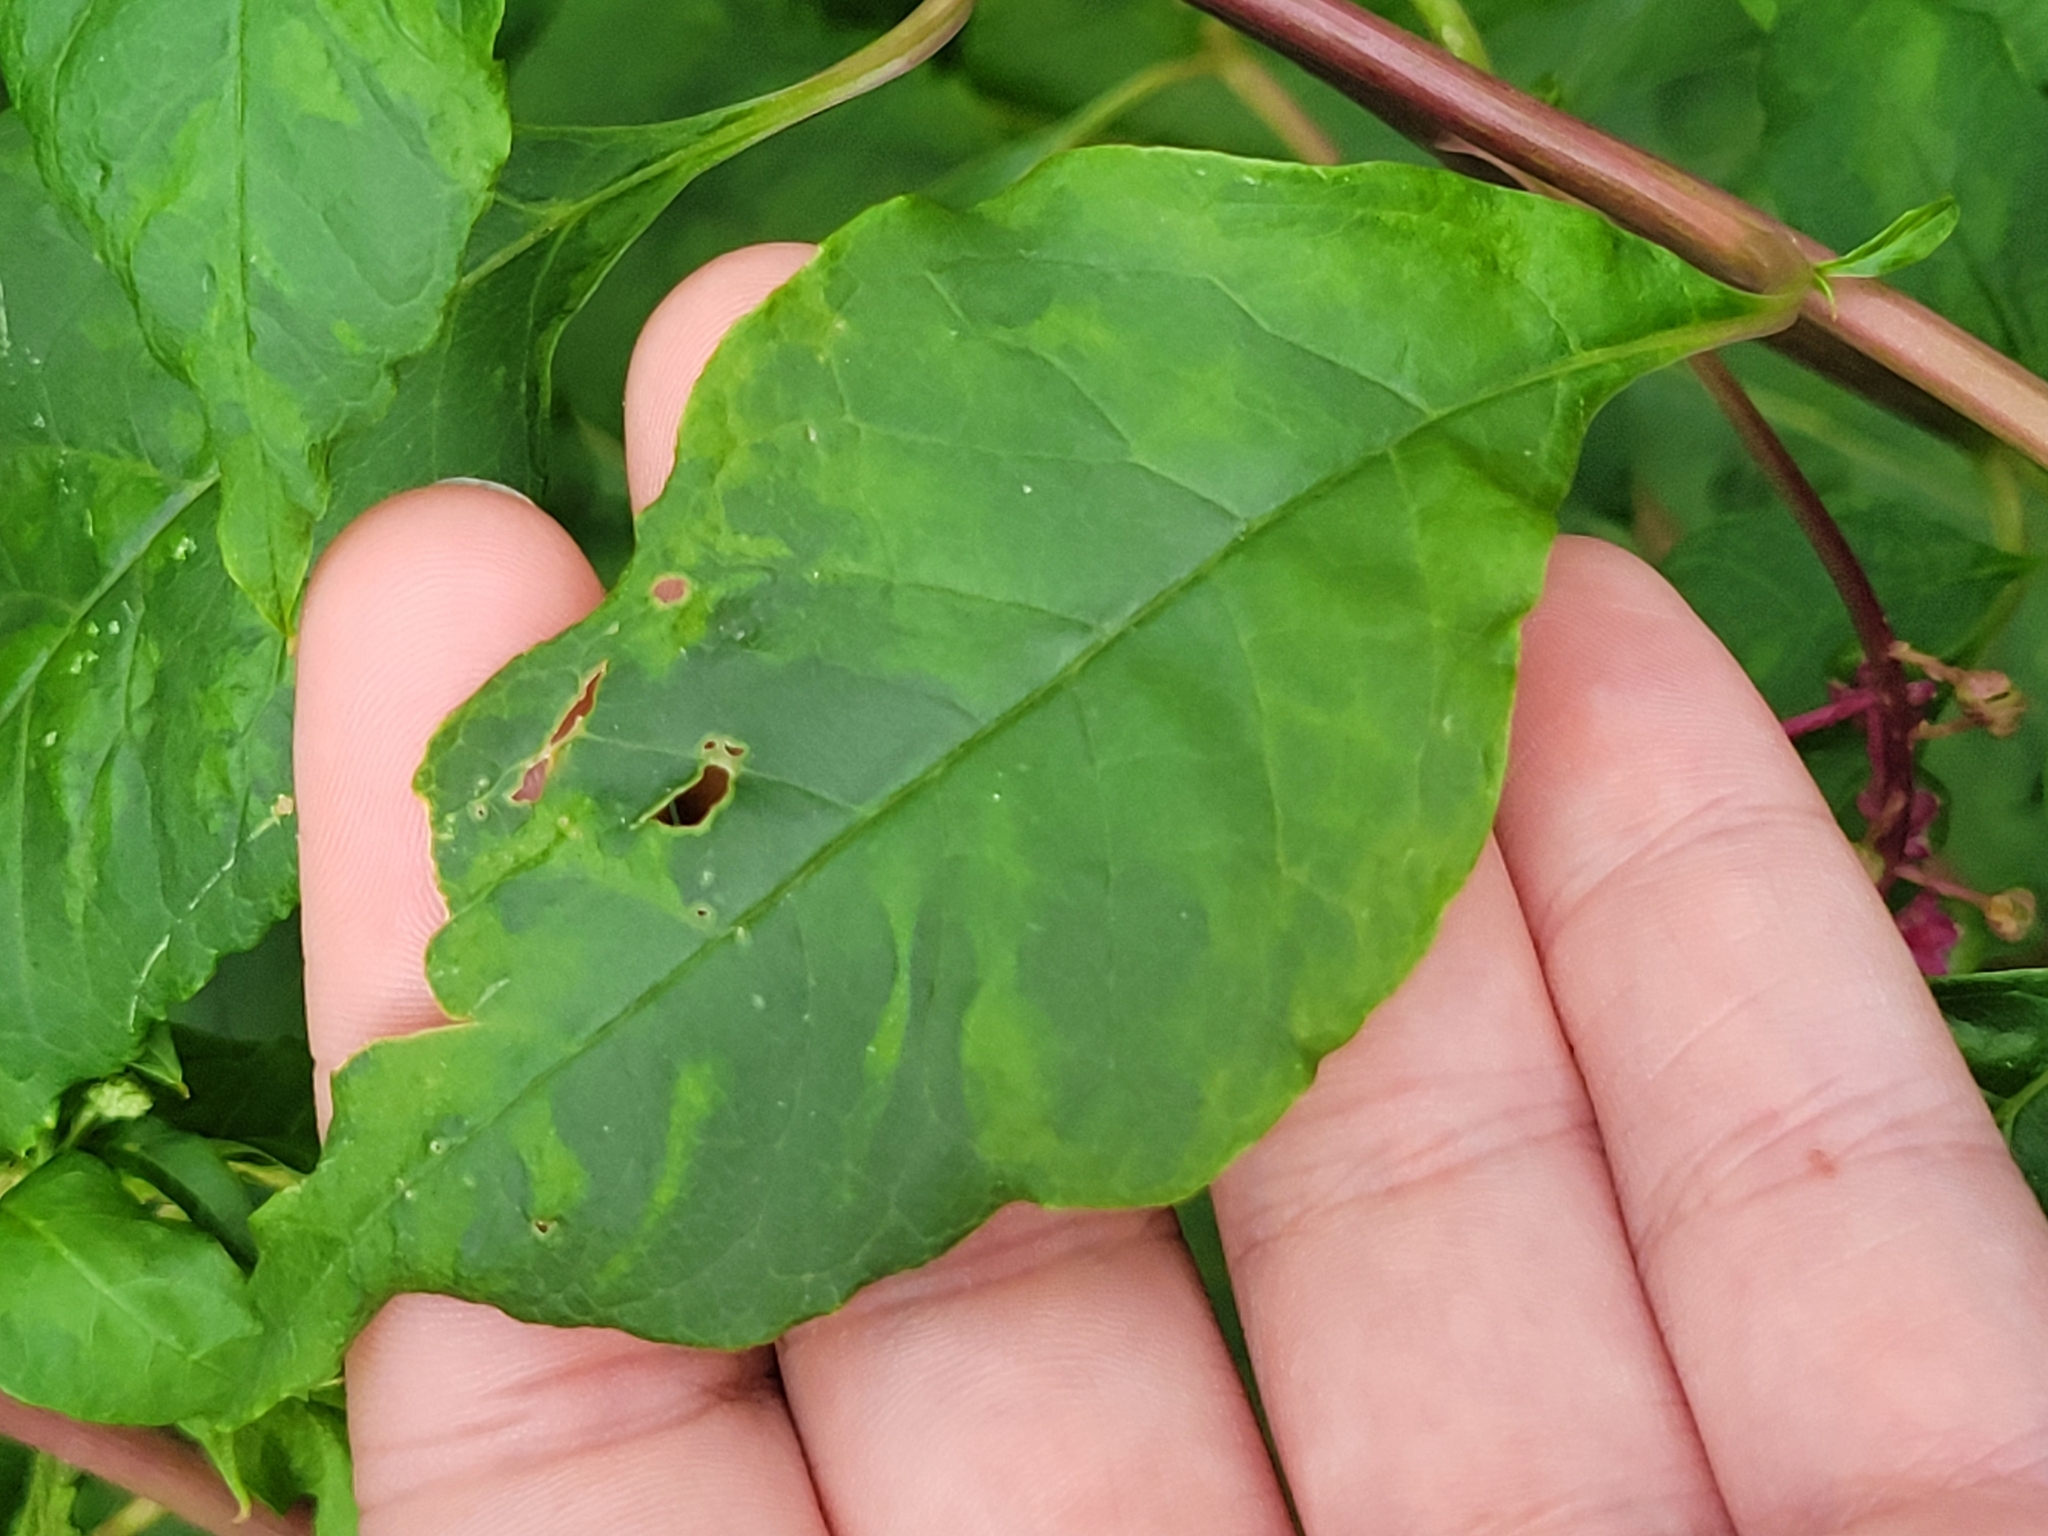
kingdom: Viruses
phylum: Pisuviricota
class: Stelpaviricetes
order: Patatavirales
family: Potyviridae
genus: Potyvirus
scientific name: Potyvirus Pokeweed mosaic virus
